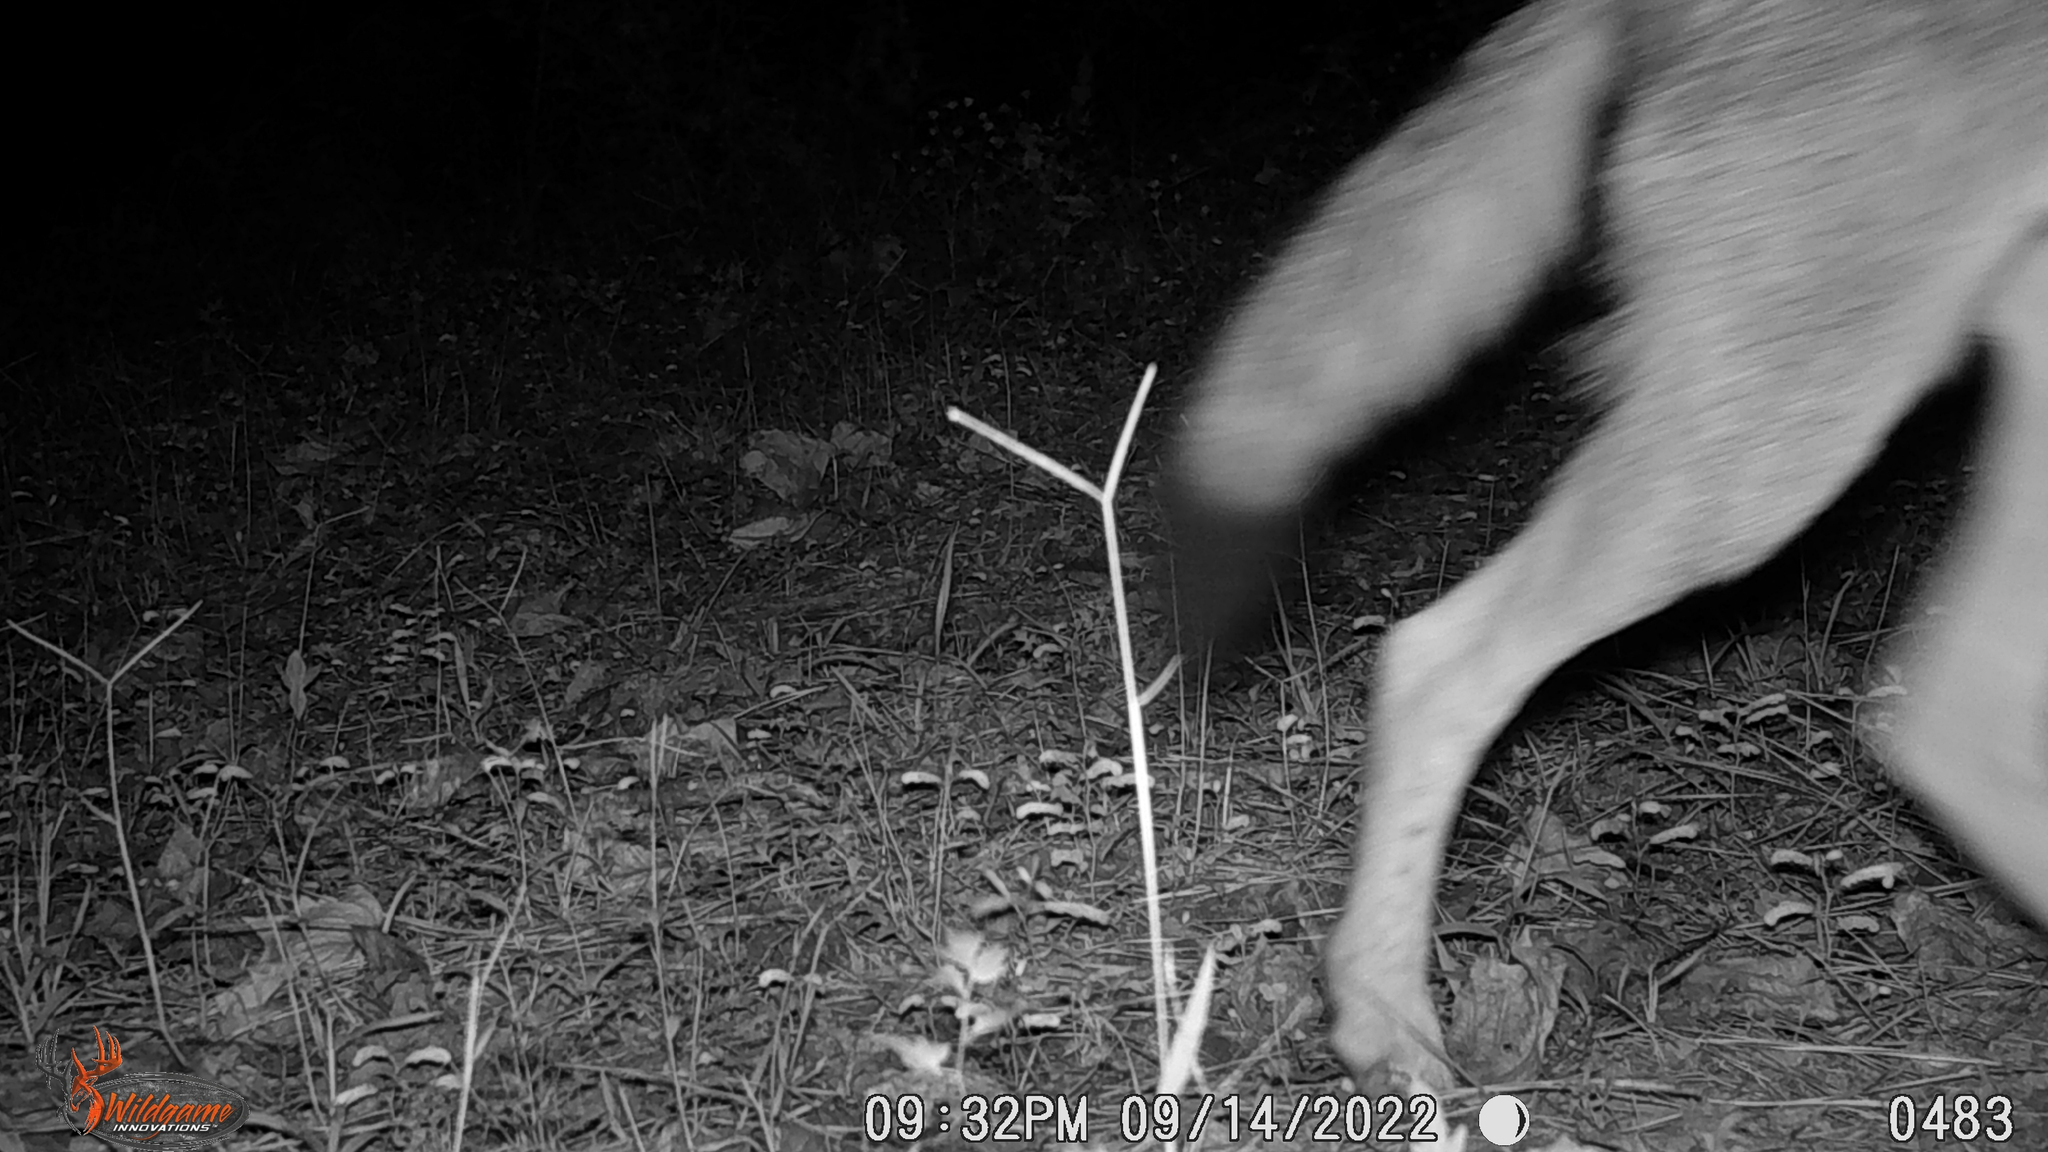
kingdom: Animalia
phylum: Chordata
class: Mammalia
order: Carnivora
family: Canidae
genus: Canis
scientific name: Canis latrans
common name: Coyote
